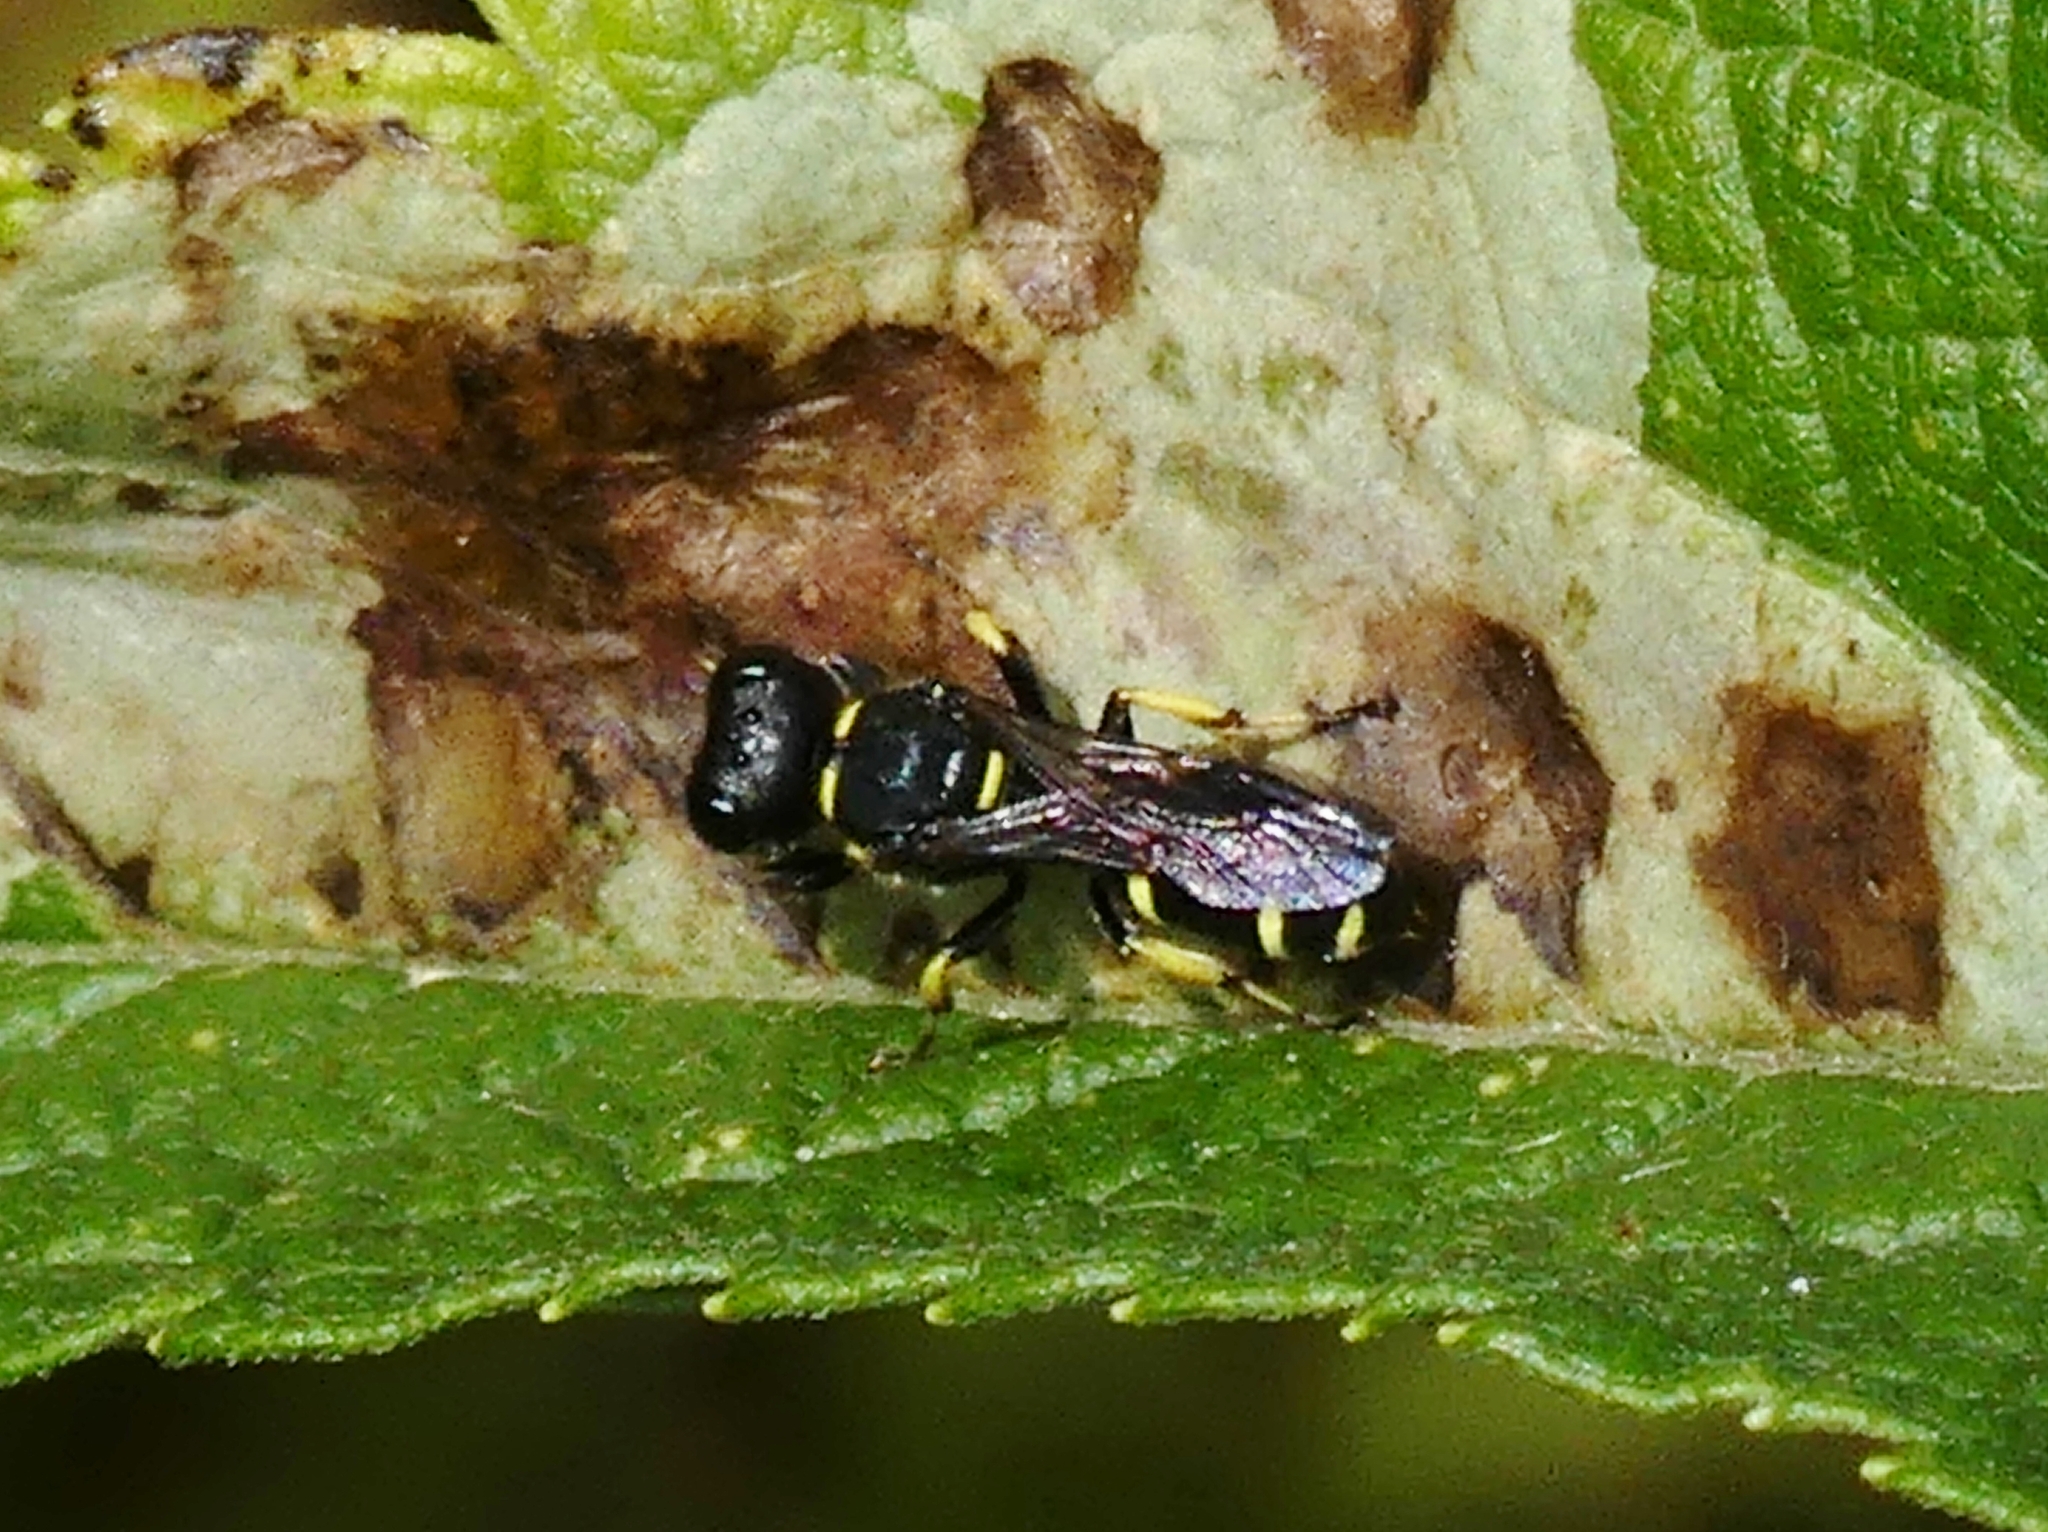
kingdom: Animalia
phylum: Arthropoda
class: Insecta
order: Hymenoptera
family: Crabronidae
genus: Ectemnius
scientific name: Ectemnius continuus
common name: Common ectemnius
